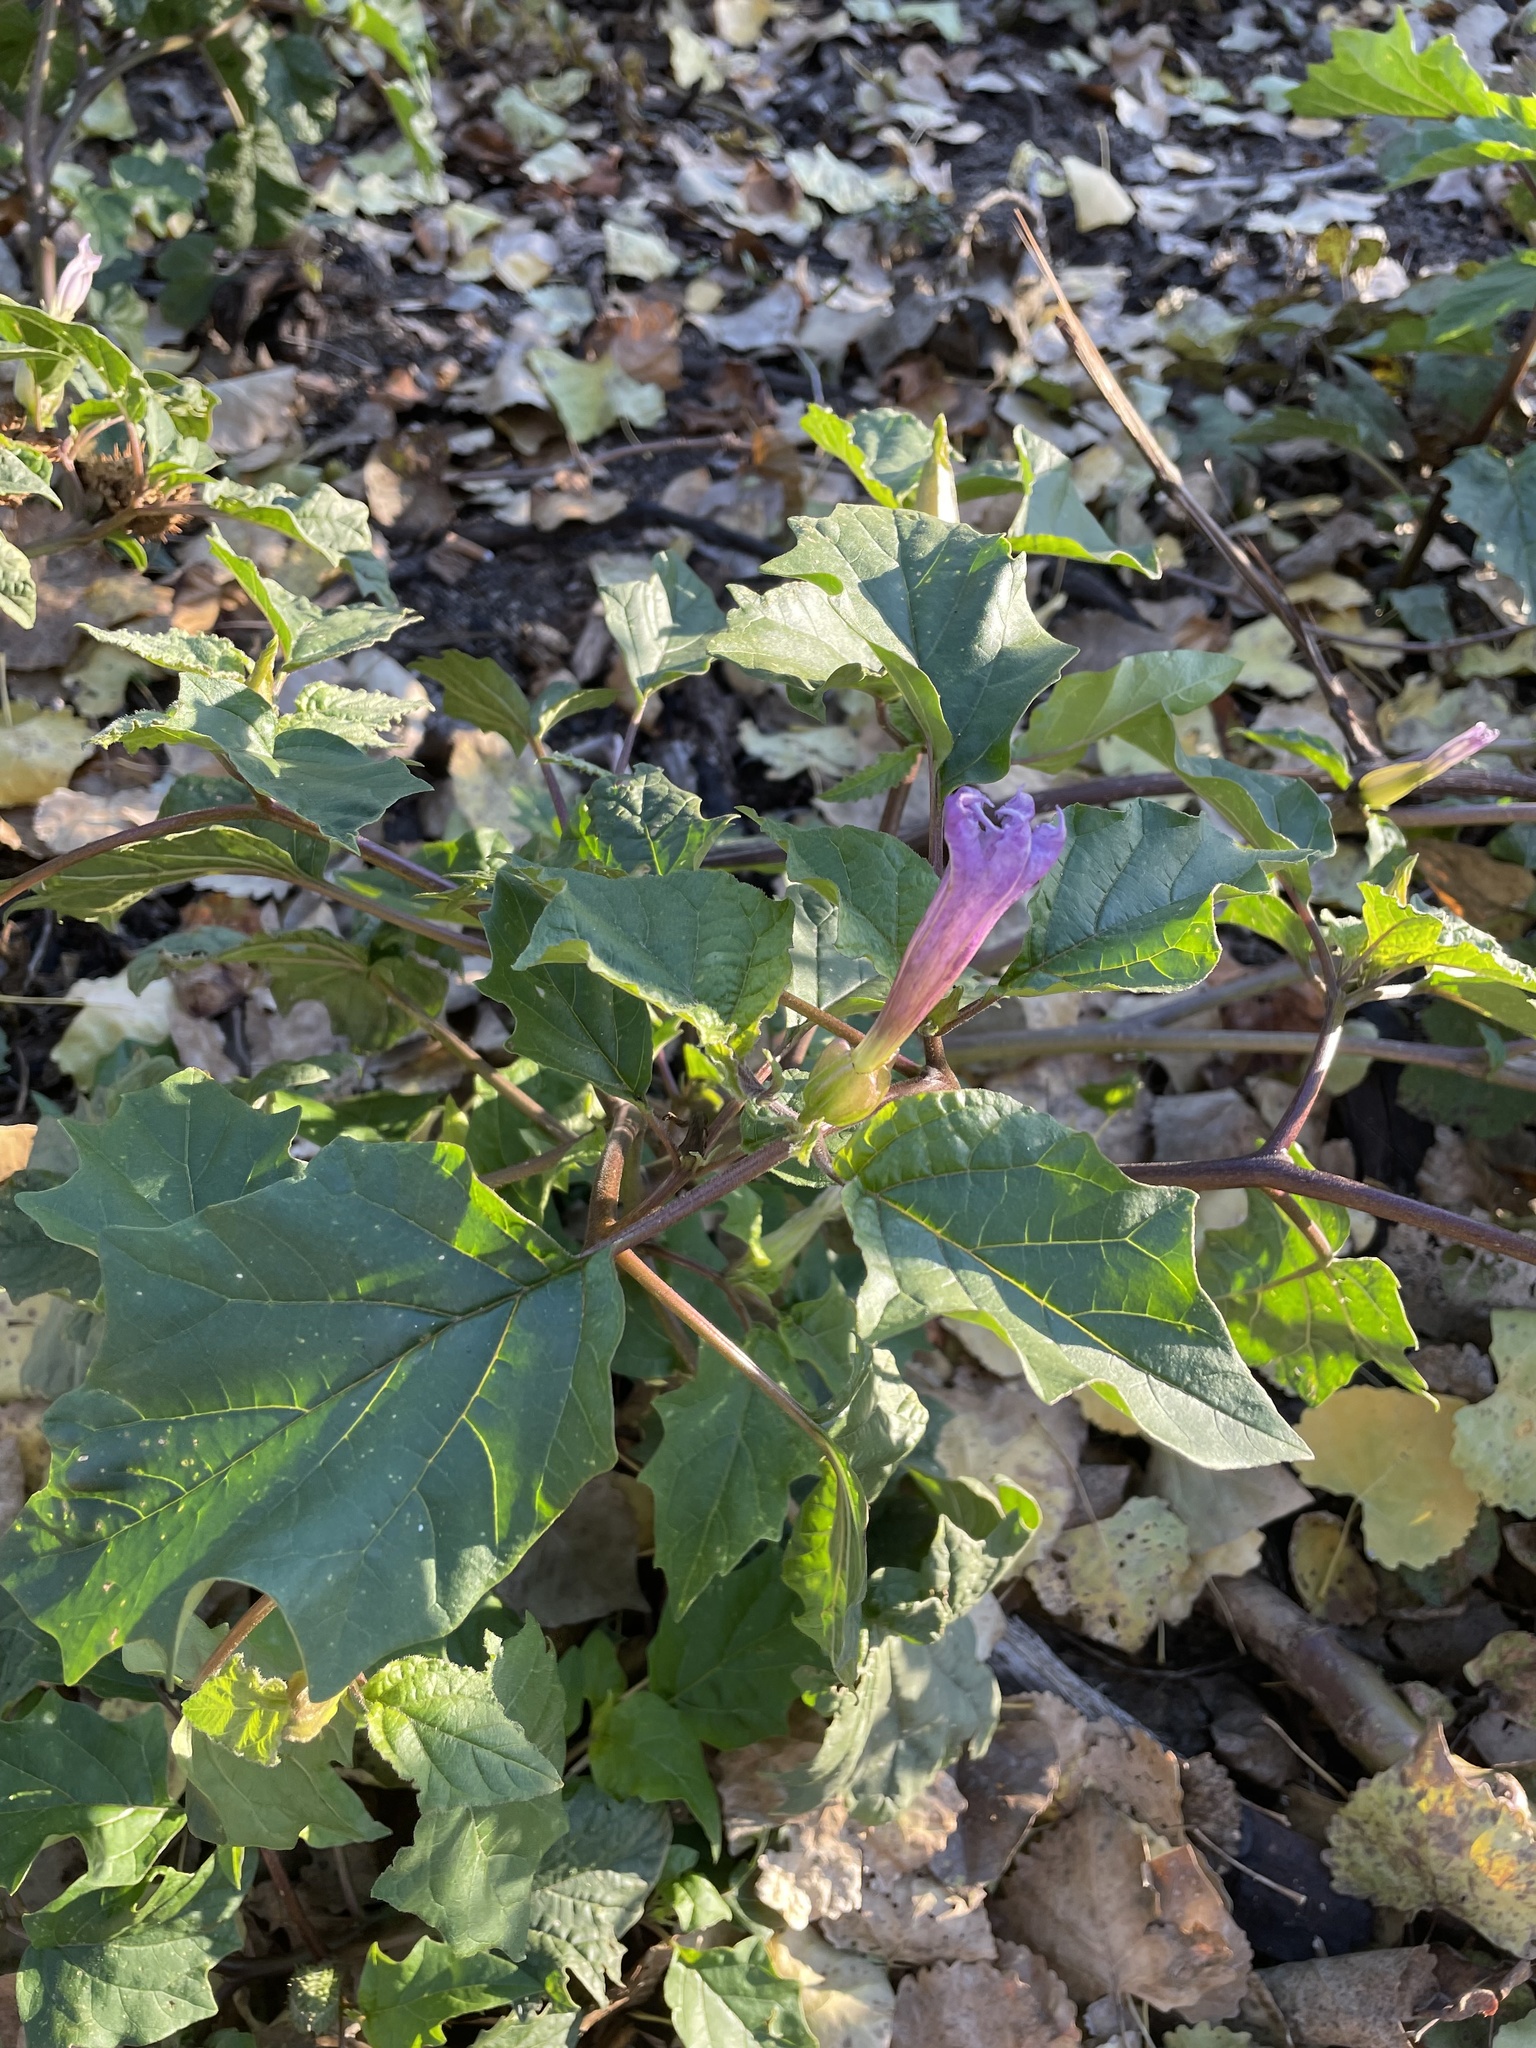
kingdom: Plantae
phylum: Tracheophyta
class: Magnoliopsida
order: Solanales
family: Solanaceae
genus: Datura
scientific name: Datura stramonium
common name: Thorn-apple
